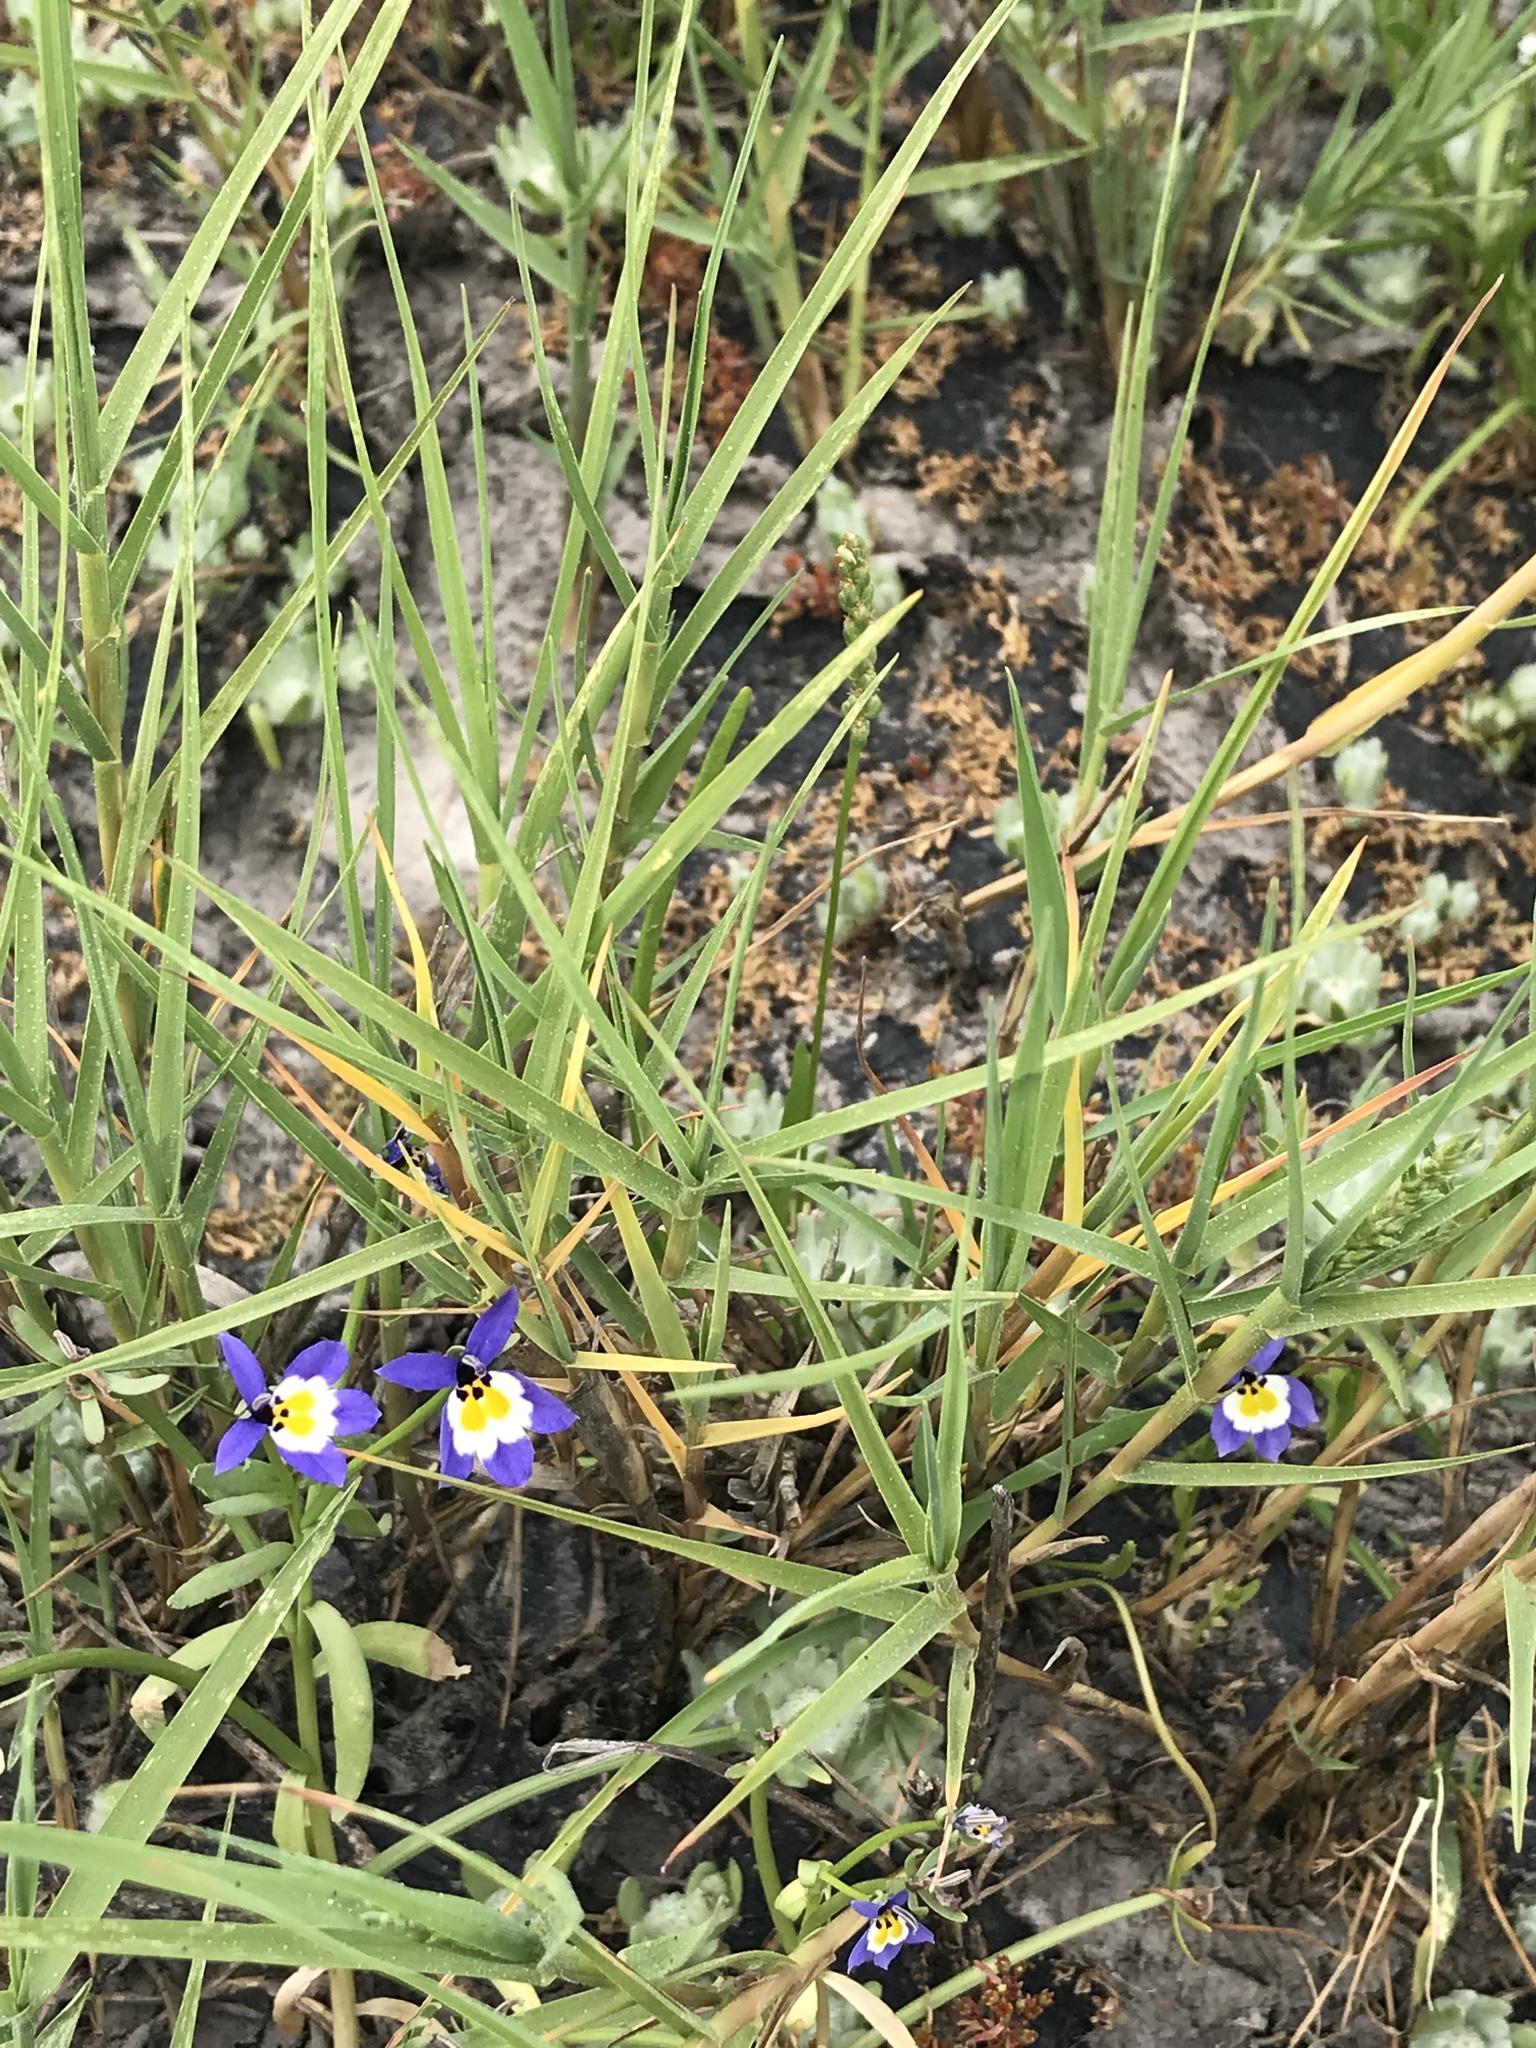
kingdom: Plantae
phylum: Tracheophyta
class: Liliopsida
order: Poales
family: Poaceae
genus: Distichlis
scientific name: Distichlis spicata
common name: Saltgrass
